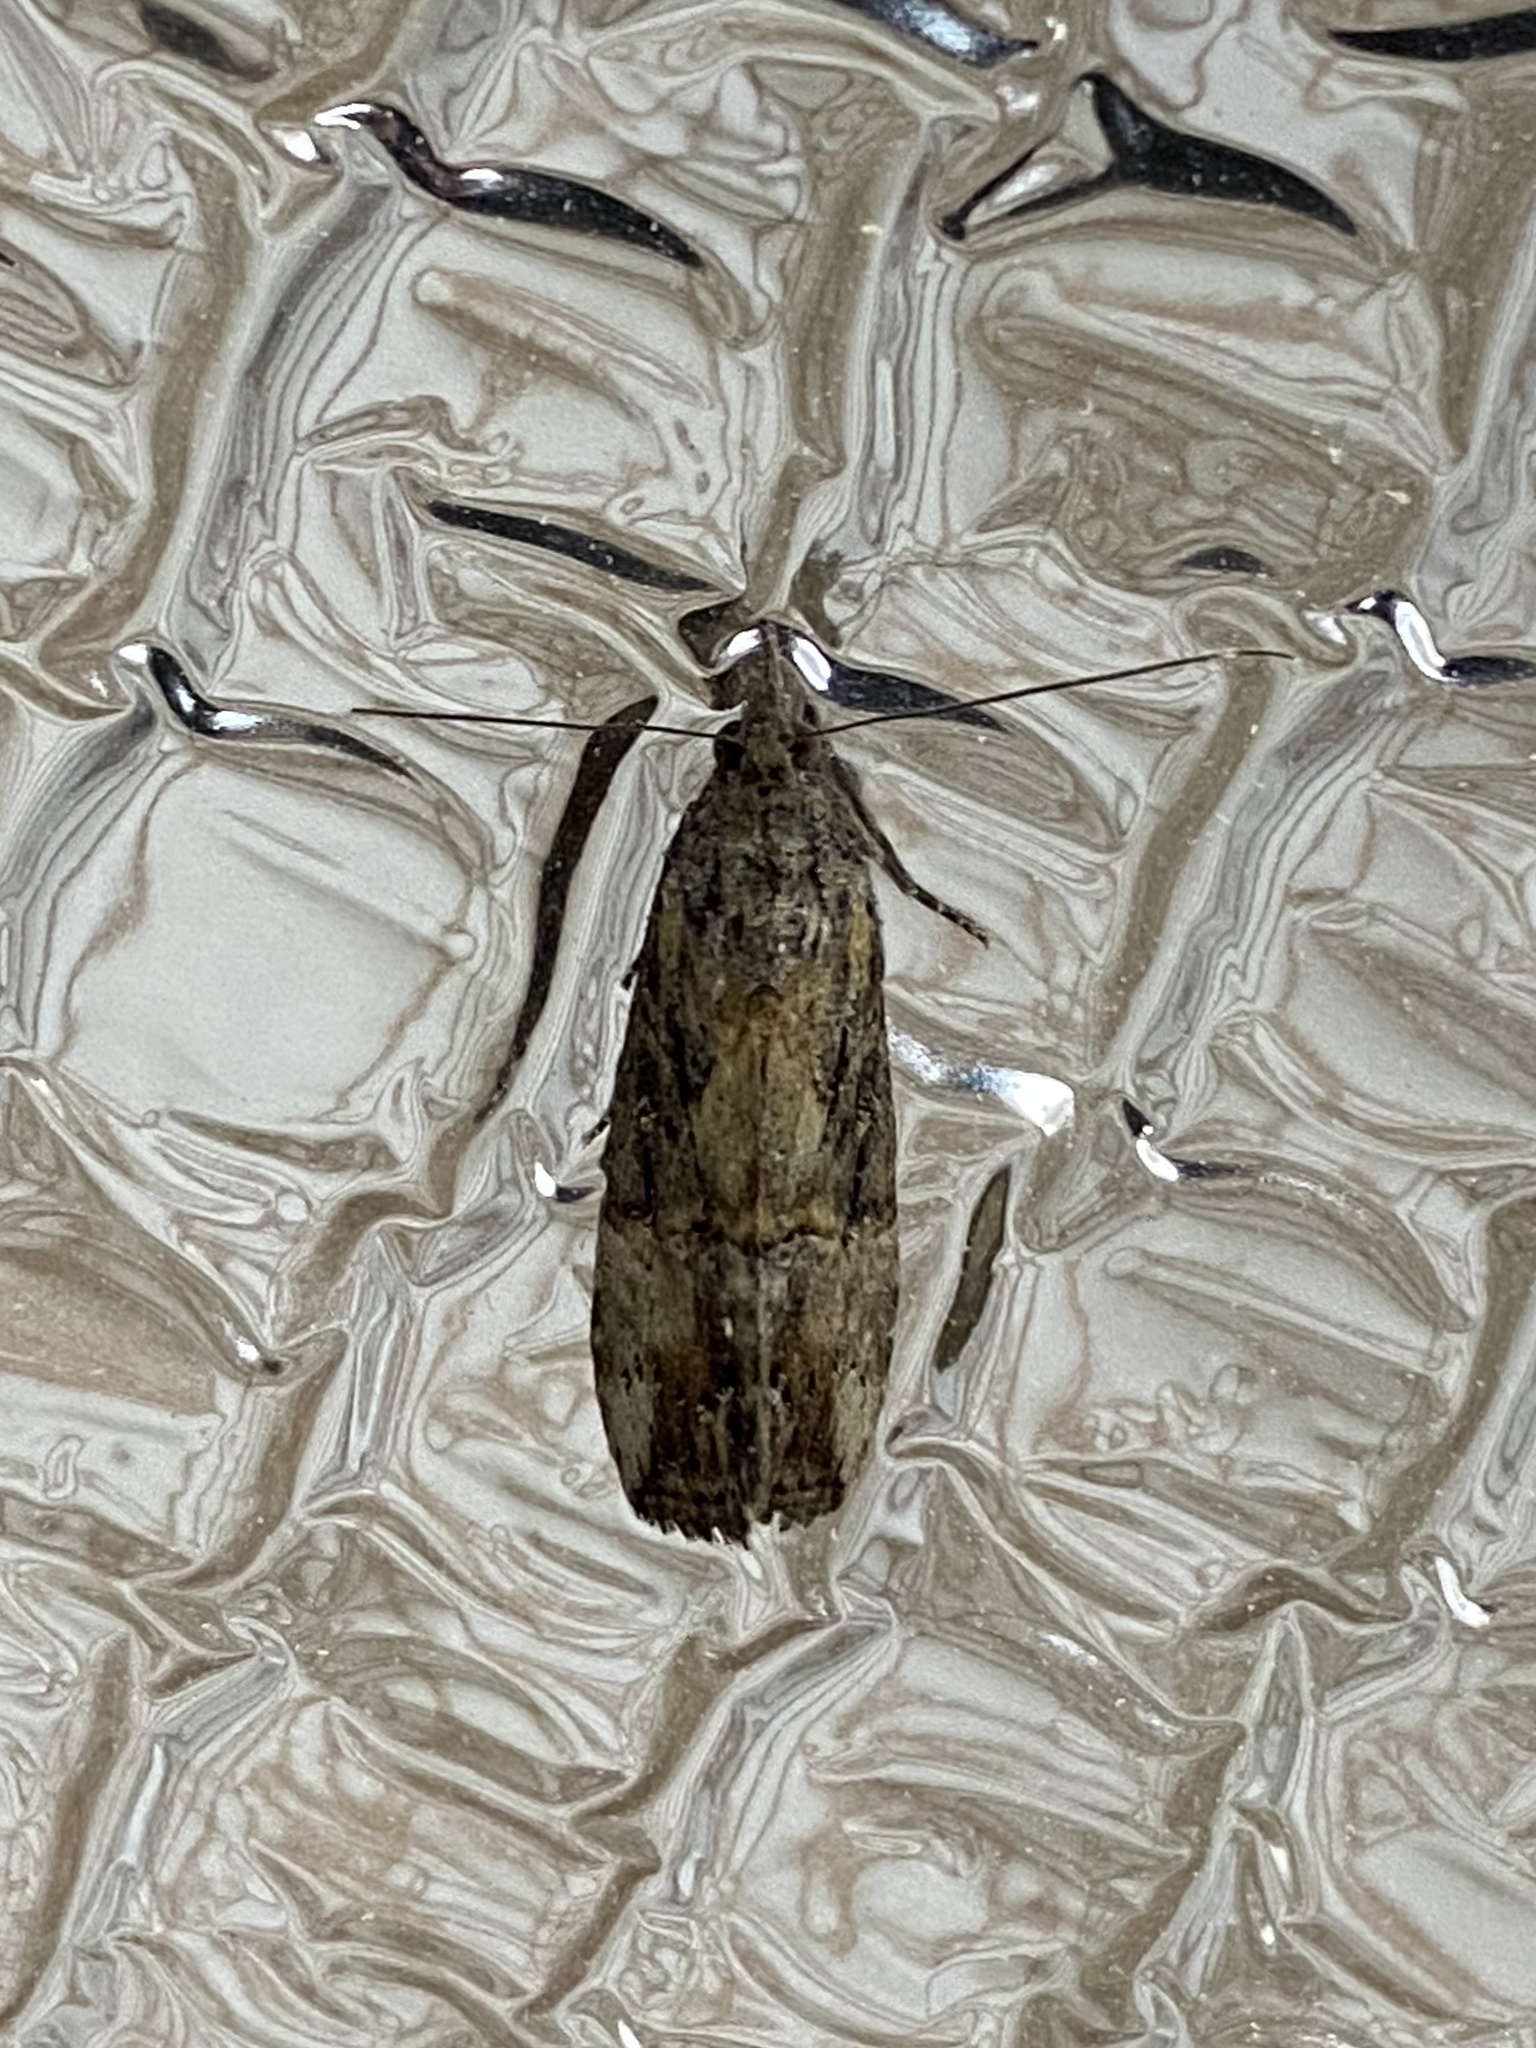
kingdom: Animalia
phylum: Arthropoda
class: Insecta
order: Lepidoptera
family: Erebidae
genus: Hypena
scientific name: Hypena scabra
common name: Green cloverworm
